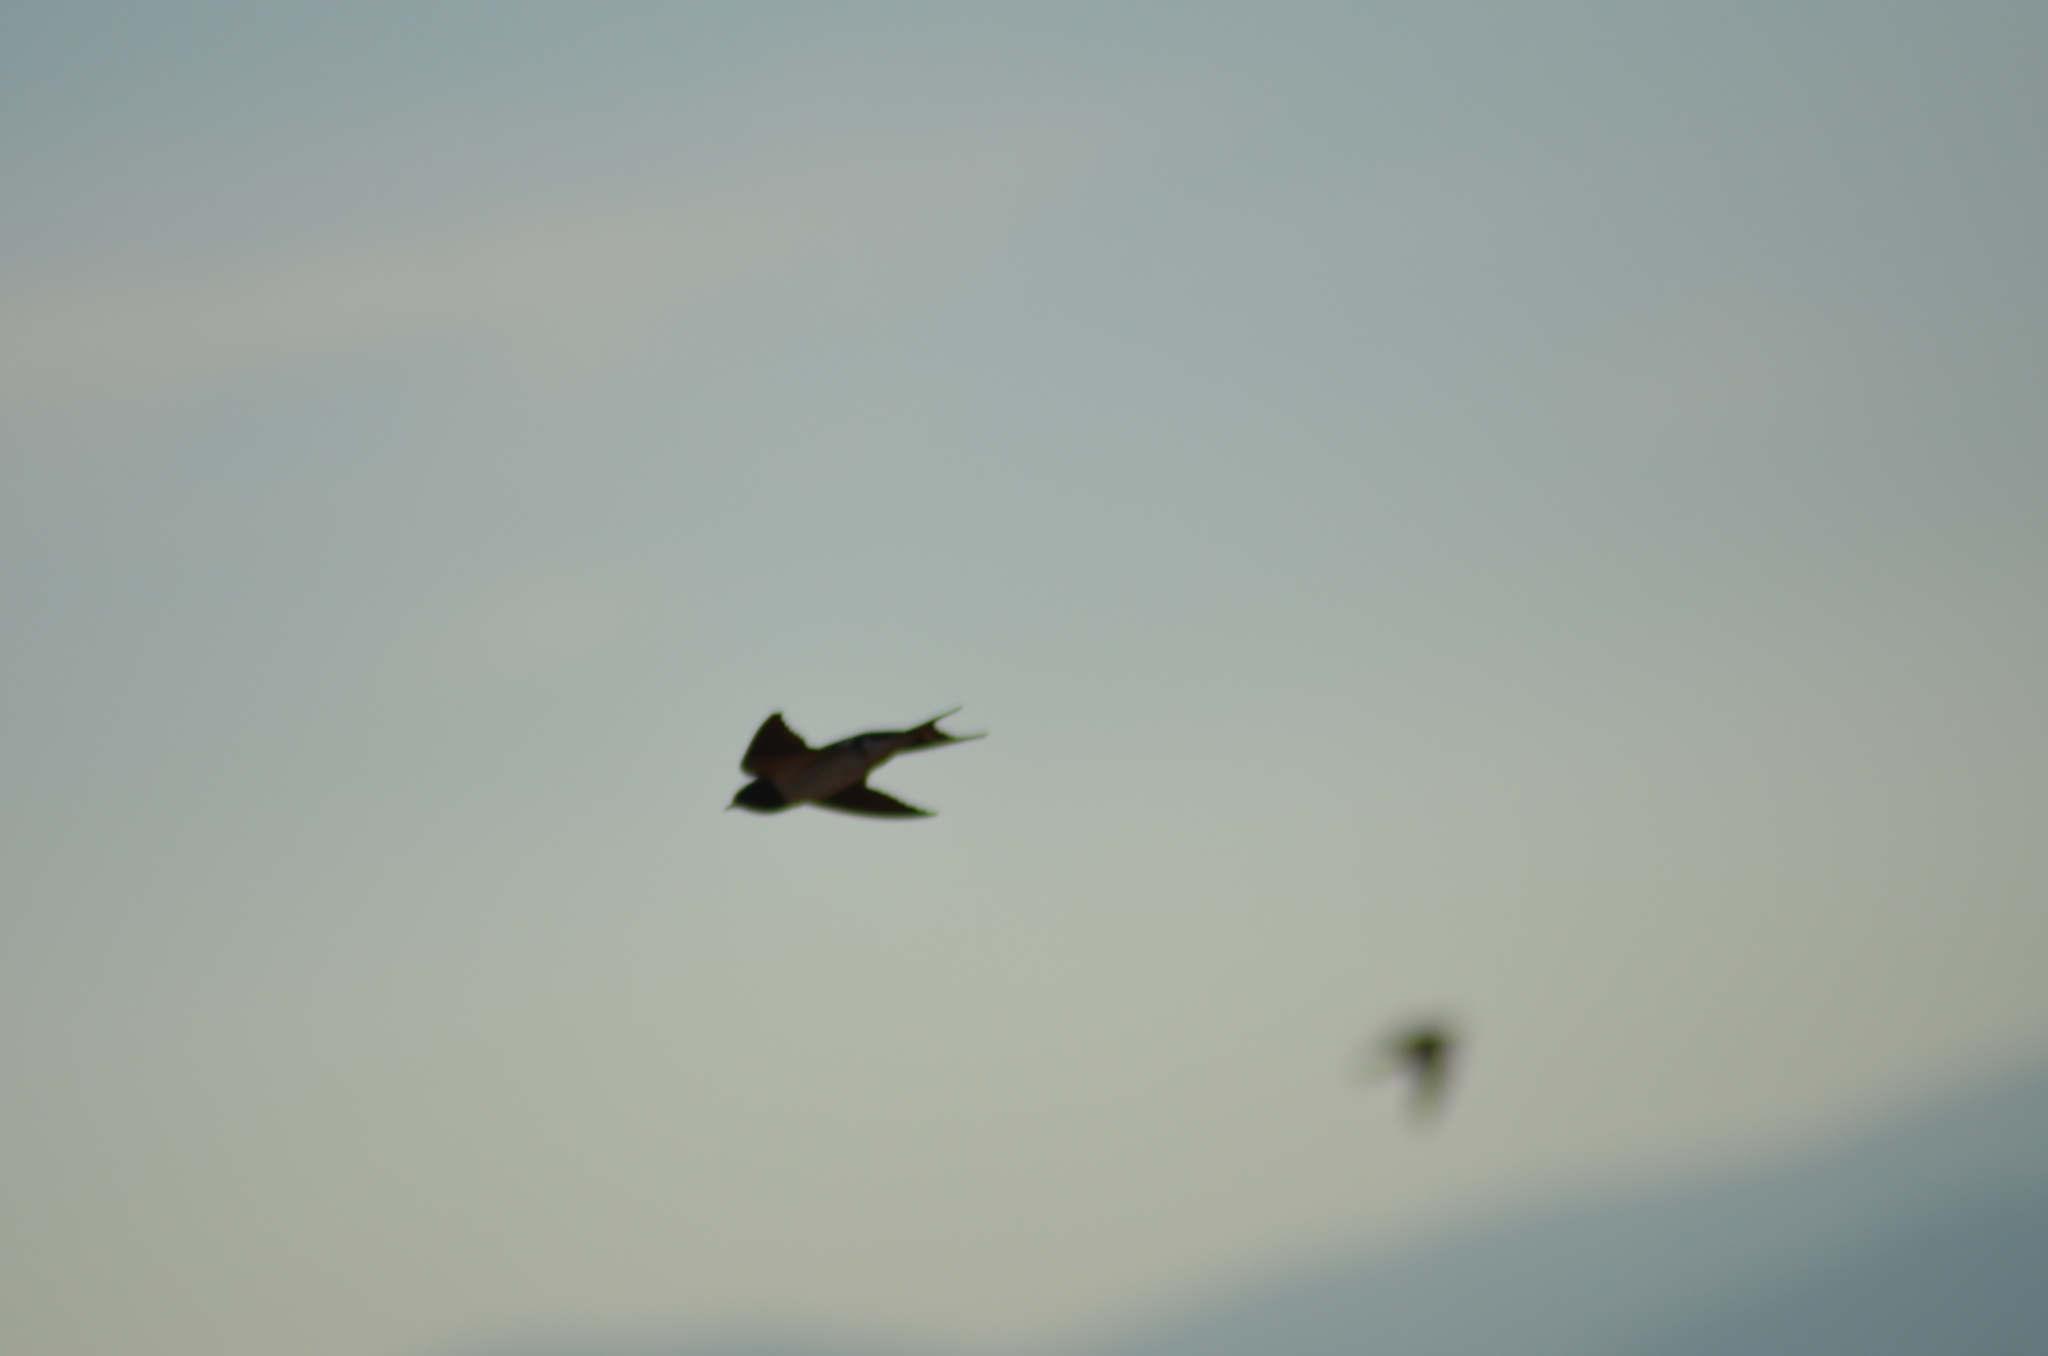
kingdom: Animalia
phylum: Chordata
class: Aves
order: Passeriformes
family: Hirundinidae
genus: Hirundo
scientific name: Hirundo rustica
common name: Barn swallow
